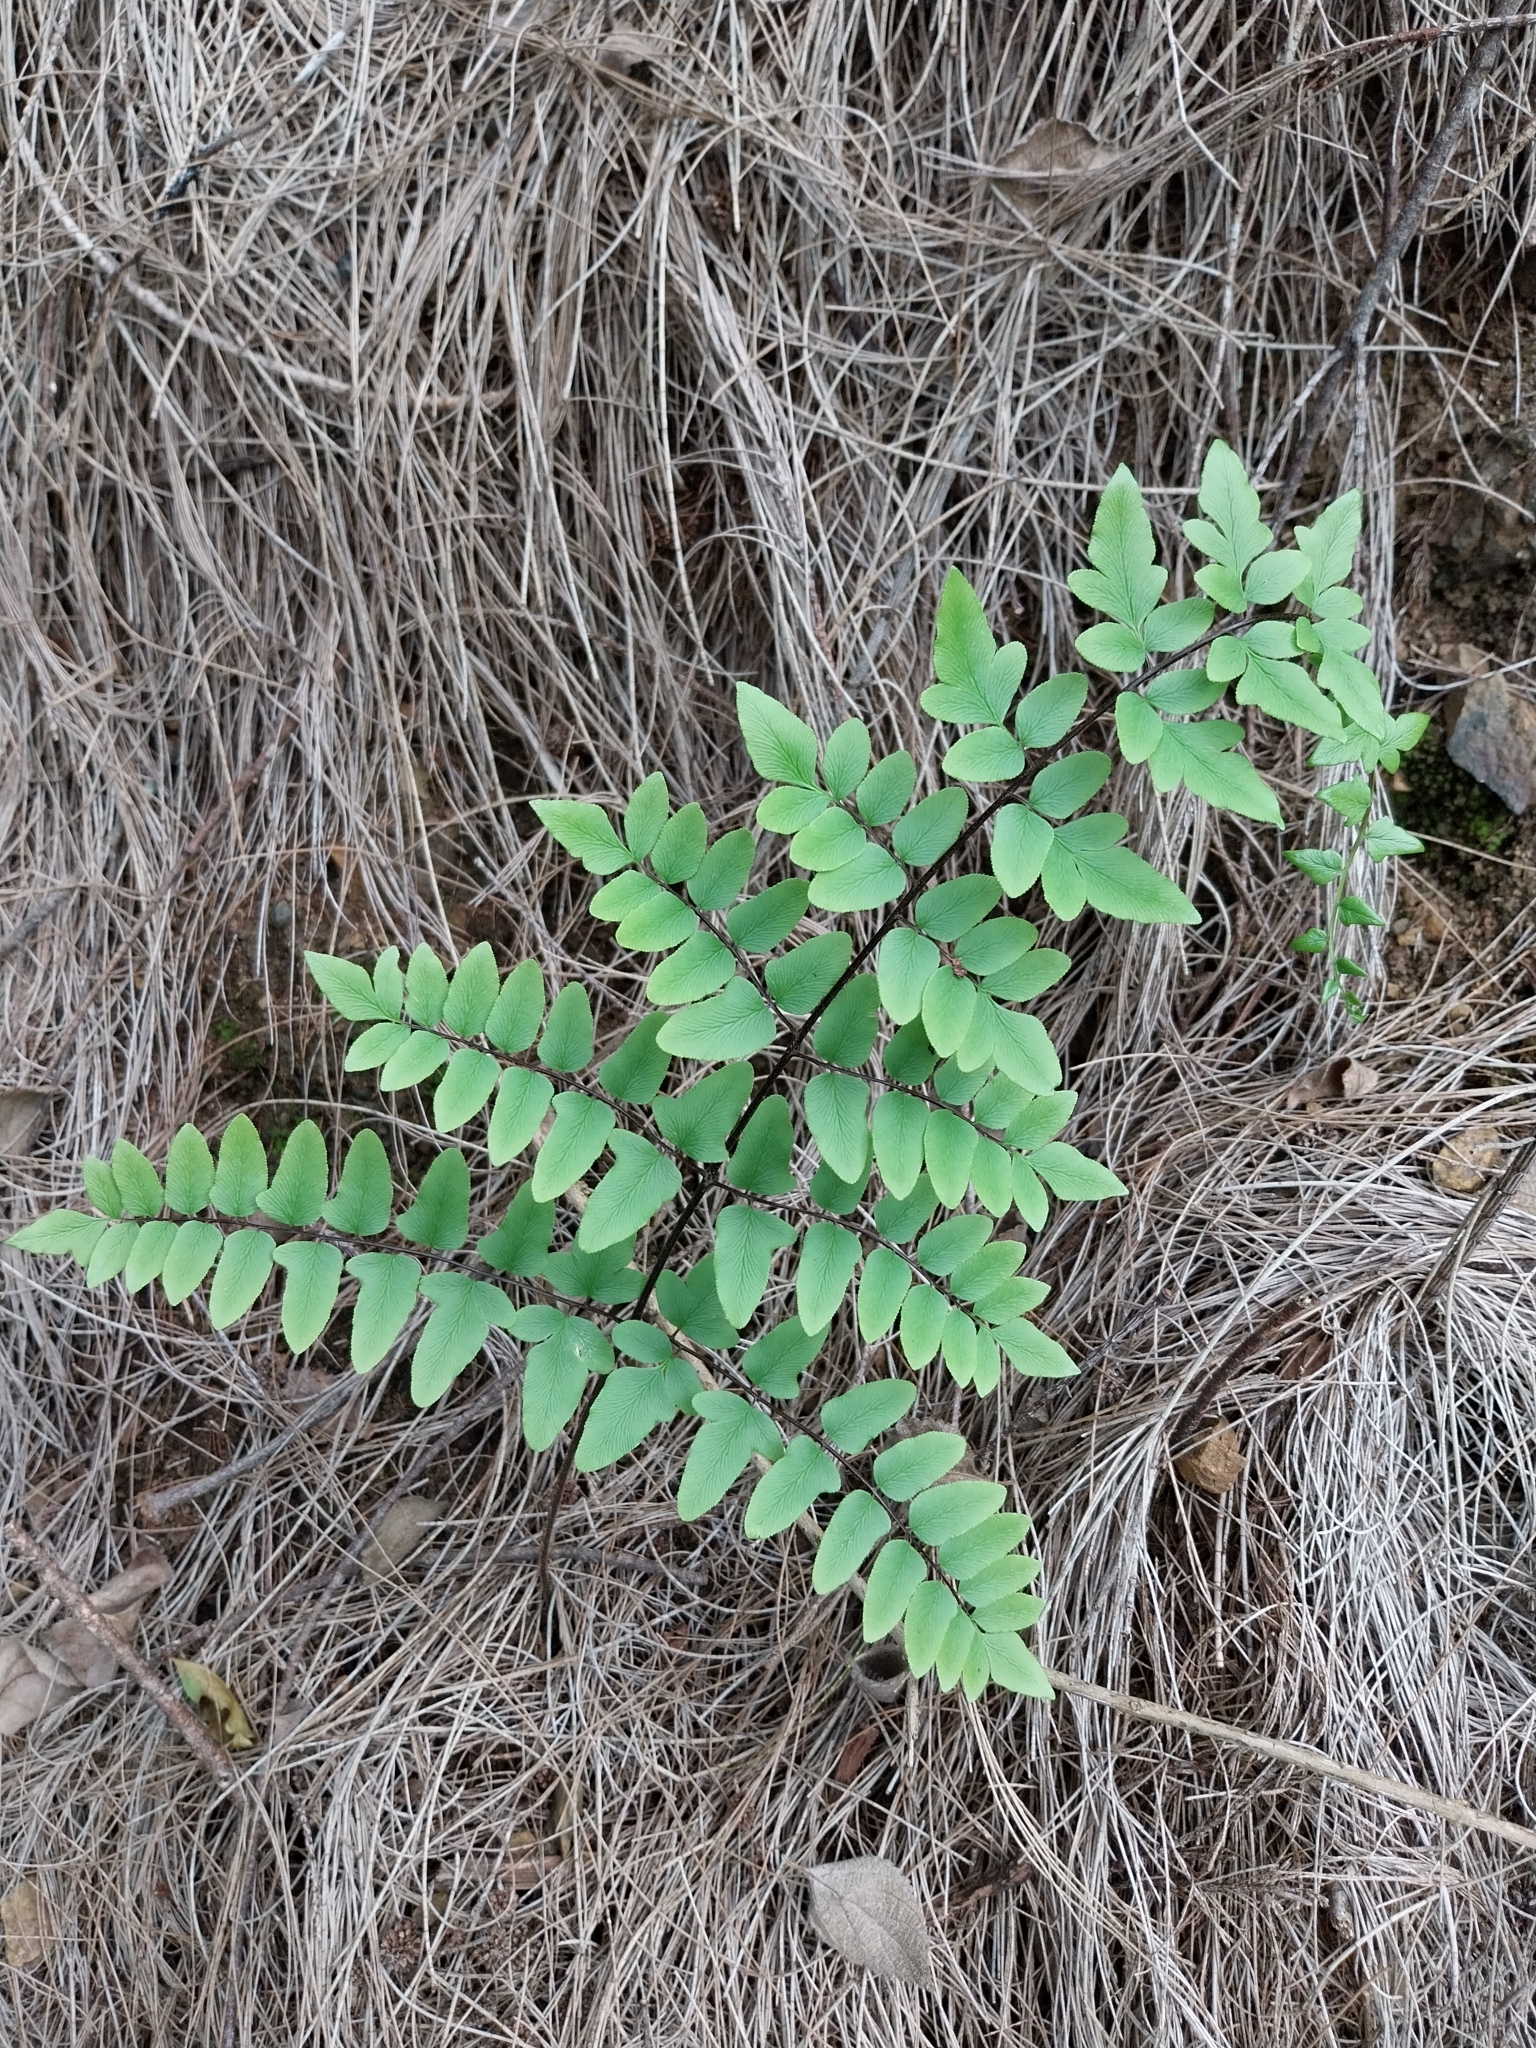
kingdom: Plantae
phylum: Tracheophyta
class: Polypodiopsida
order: Polypodiales
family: Pteridaceae
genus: Cheilanthes
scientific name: Cheilanthes viridis
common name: Green cliffbrake
